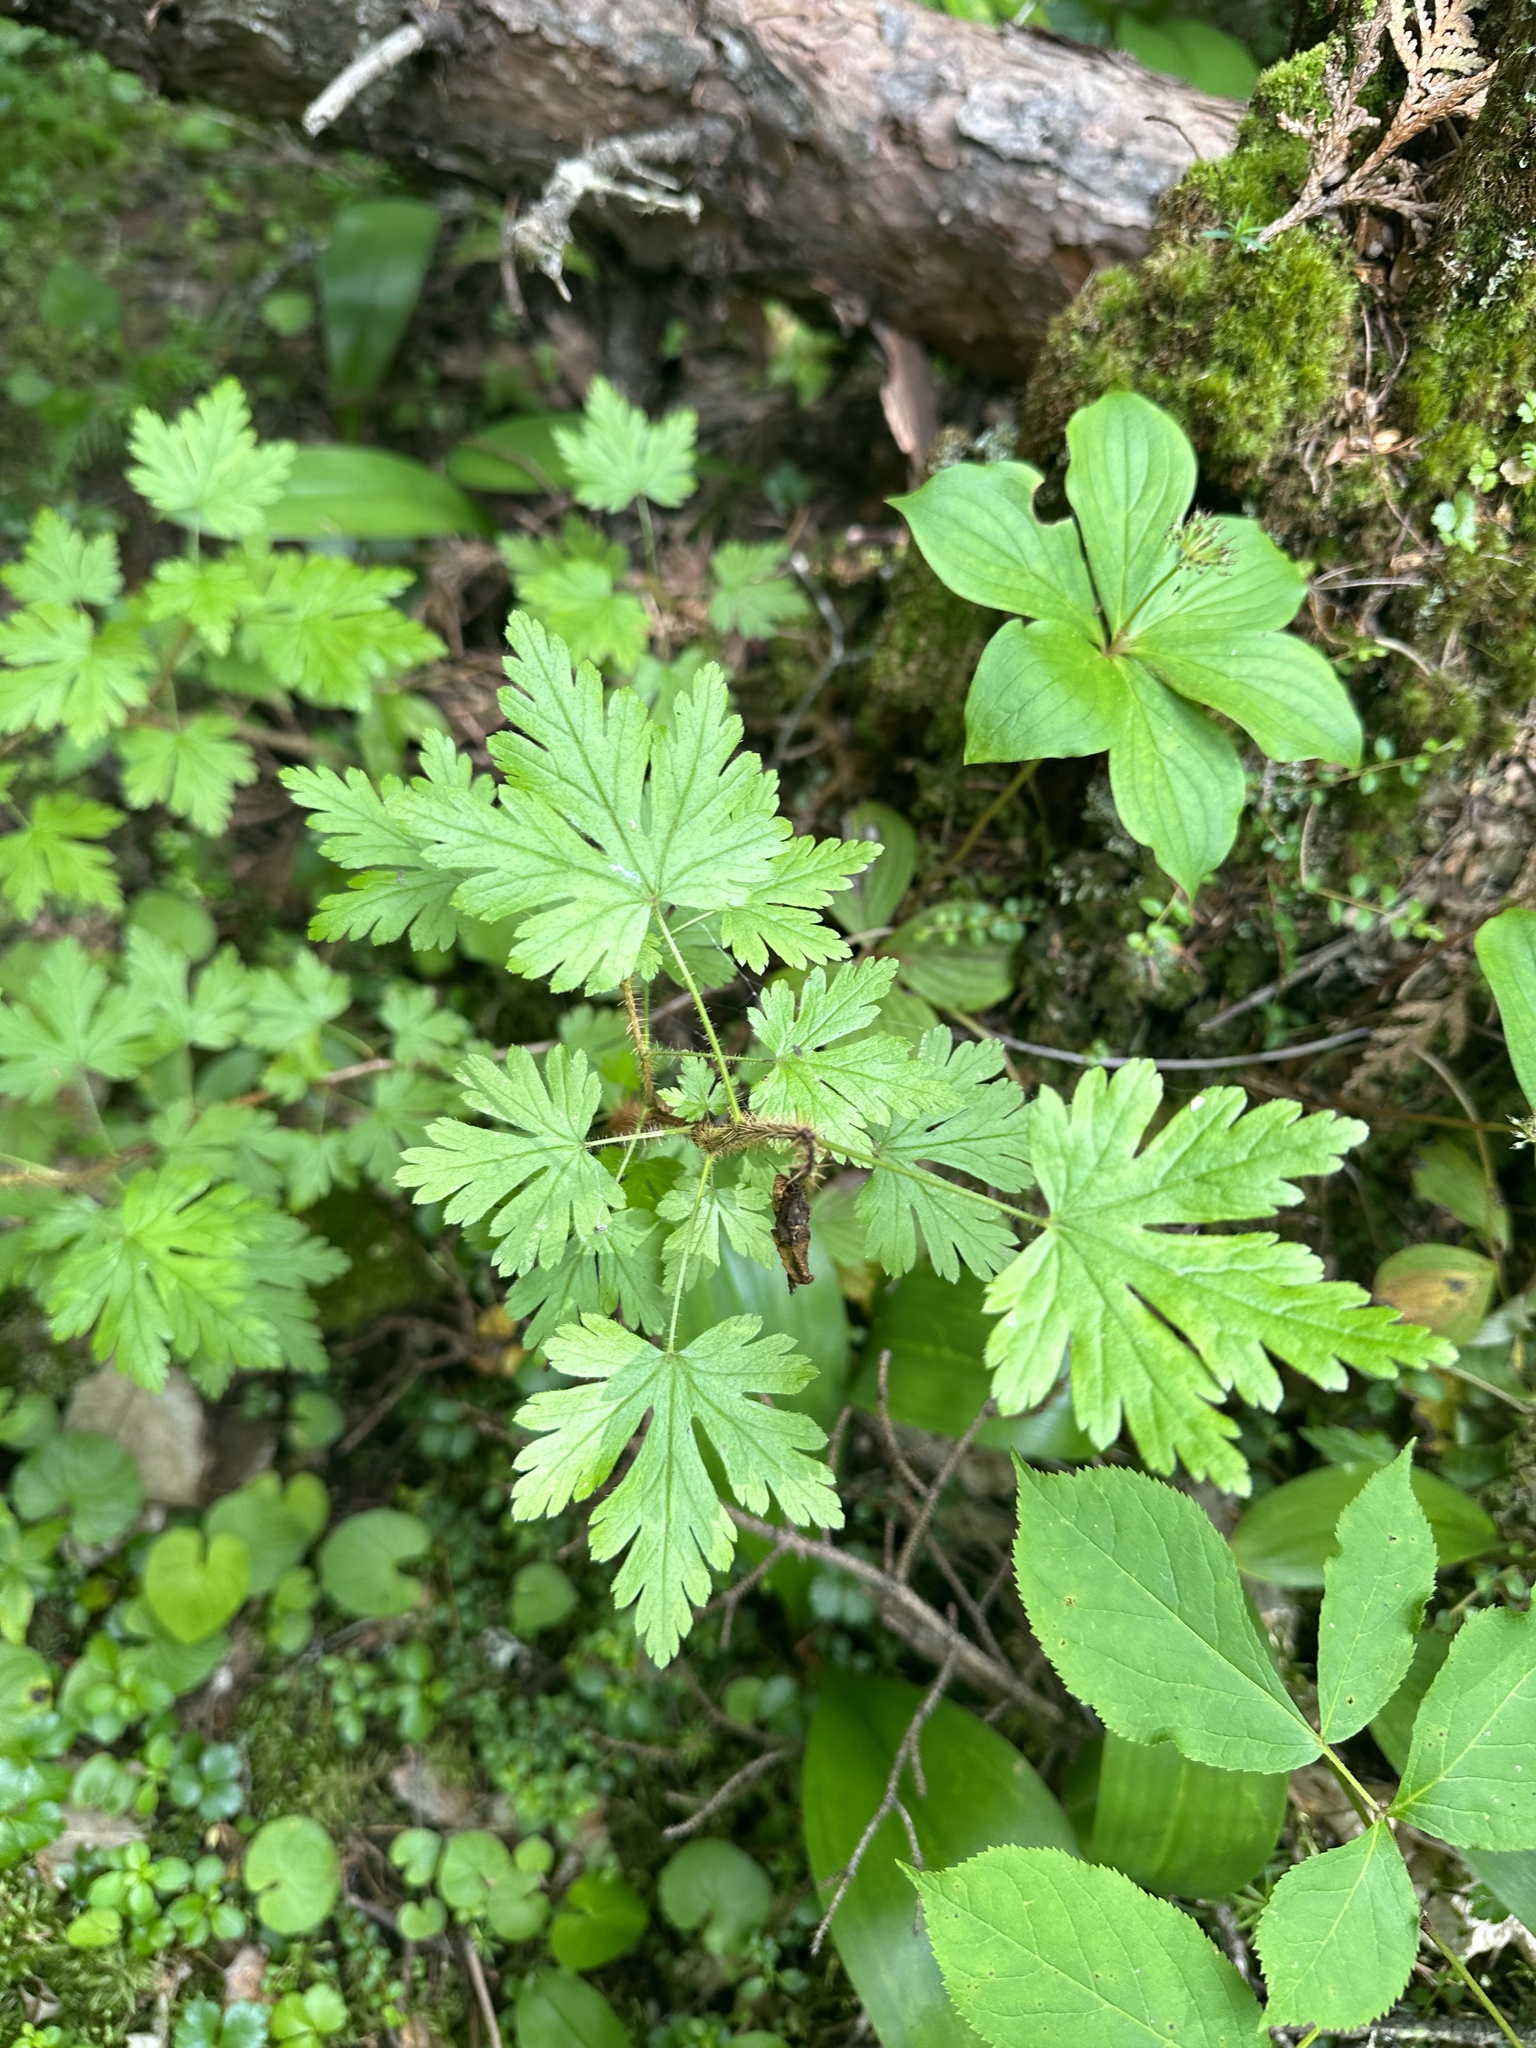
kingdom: Plantae
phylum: Tracheophyta
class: Magnoliopsida
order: Saxifragales
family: Grossulariaceae
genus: Ribes
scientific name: Ribes lacustre
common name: Black gooseberry
